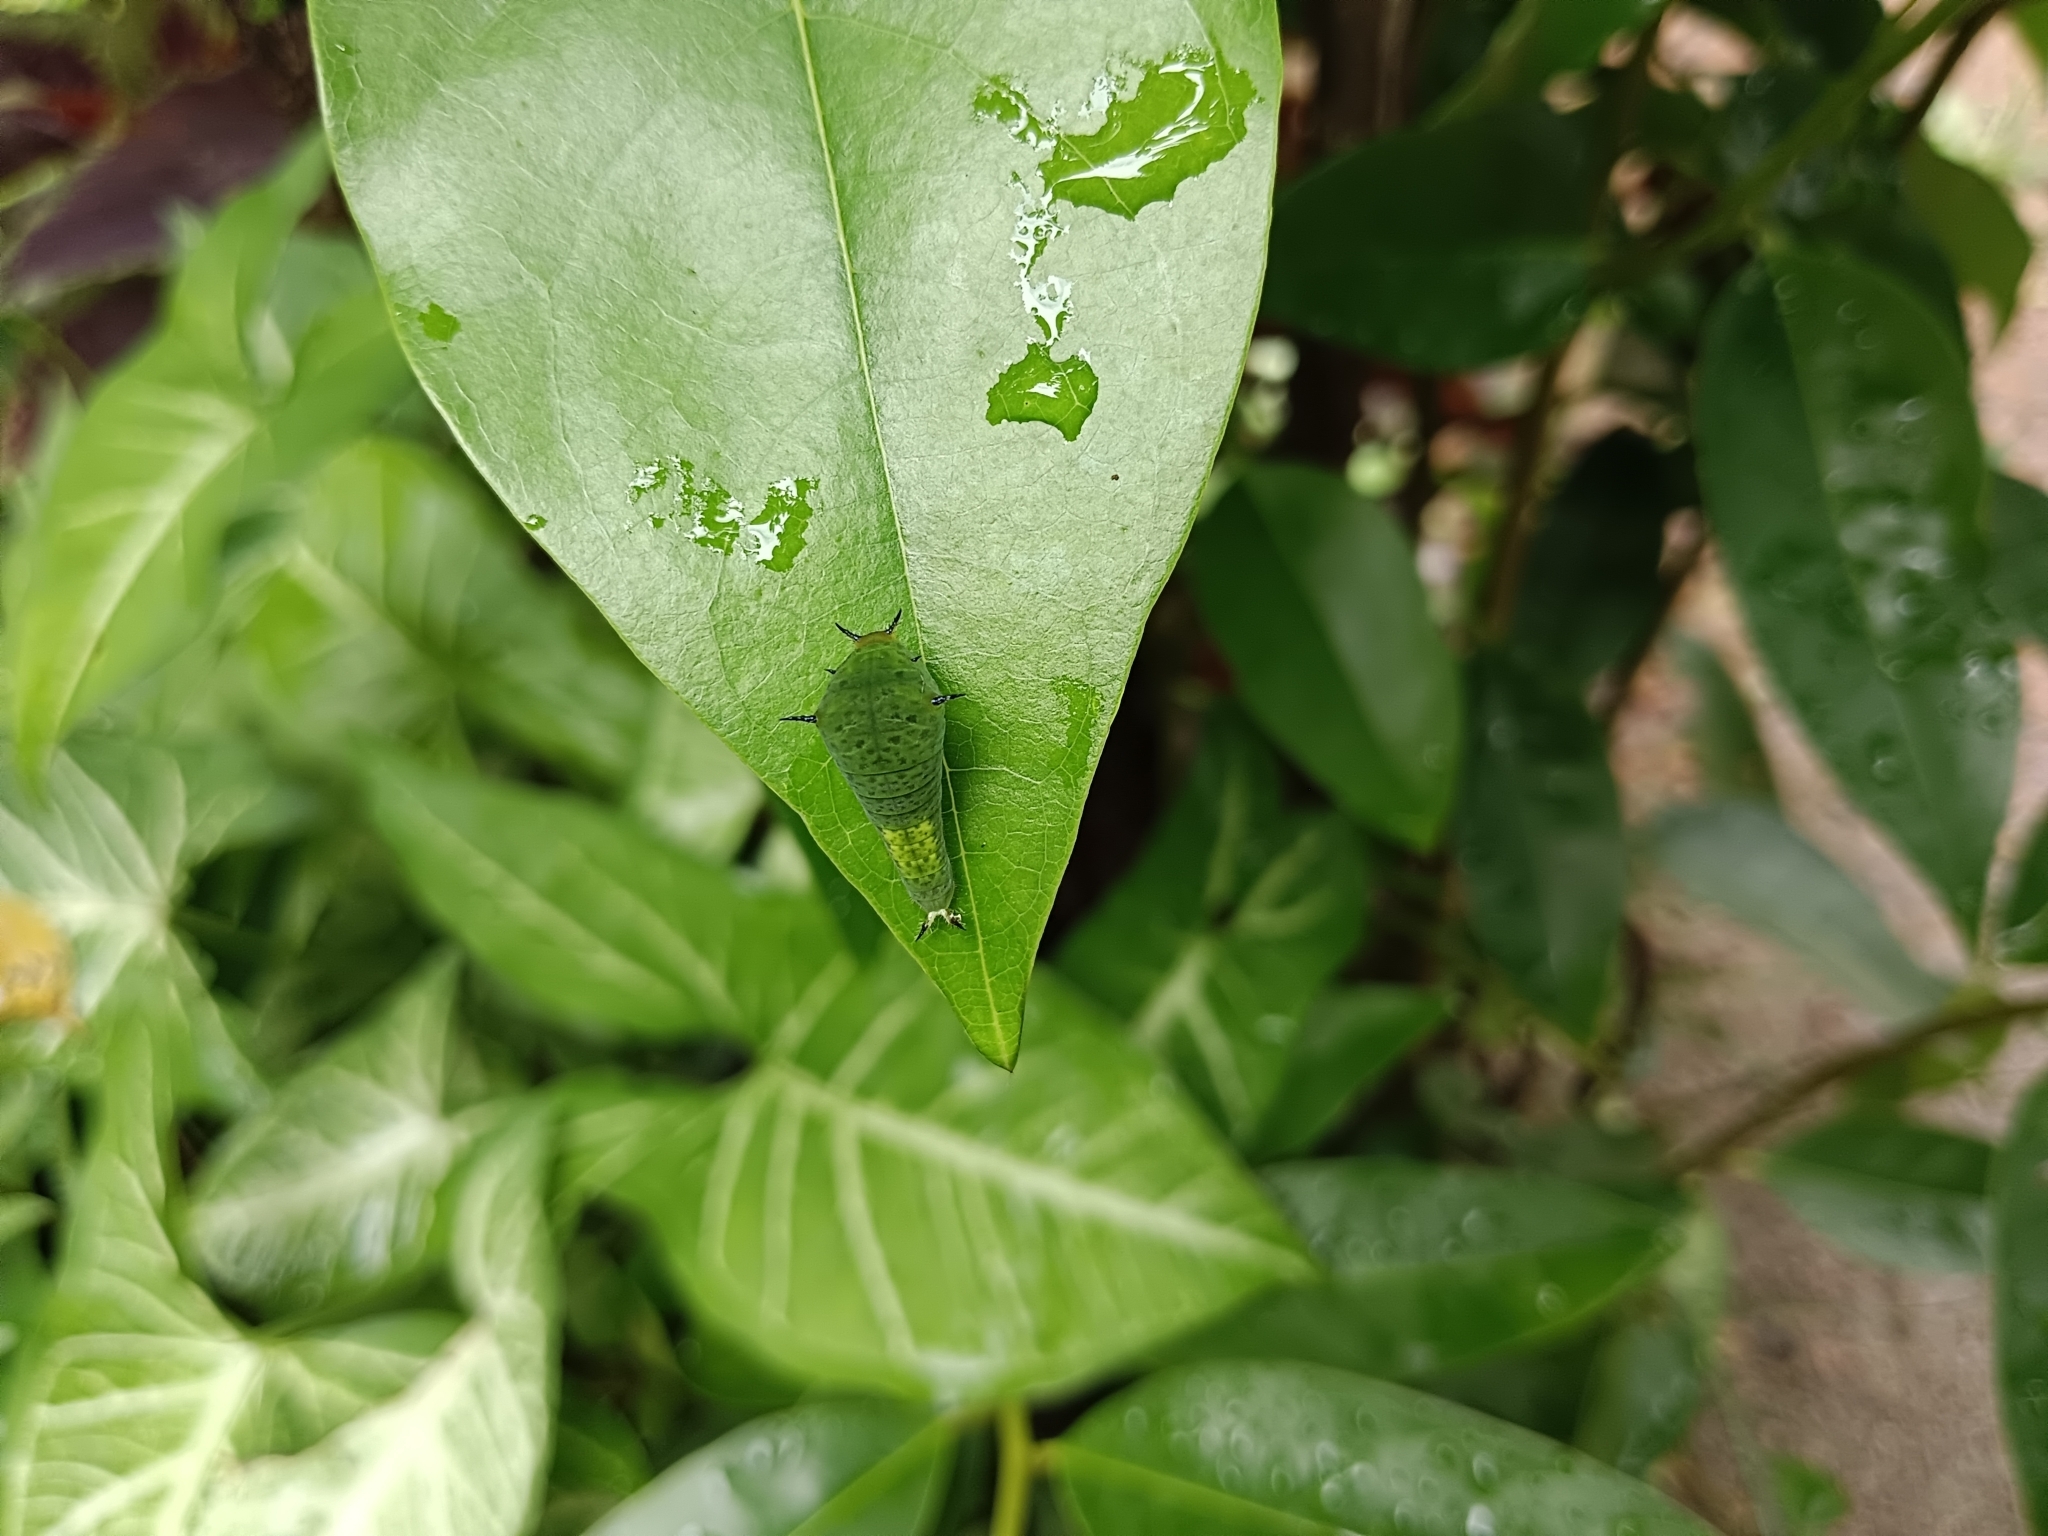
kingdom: Animalia
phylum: Arthropoda
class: Insecta
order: Lepidoptera
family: Papilionidae
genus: Graphium
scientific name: Graphium agamemnon
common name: Tailed jay
